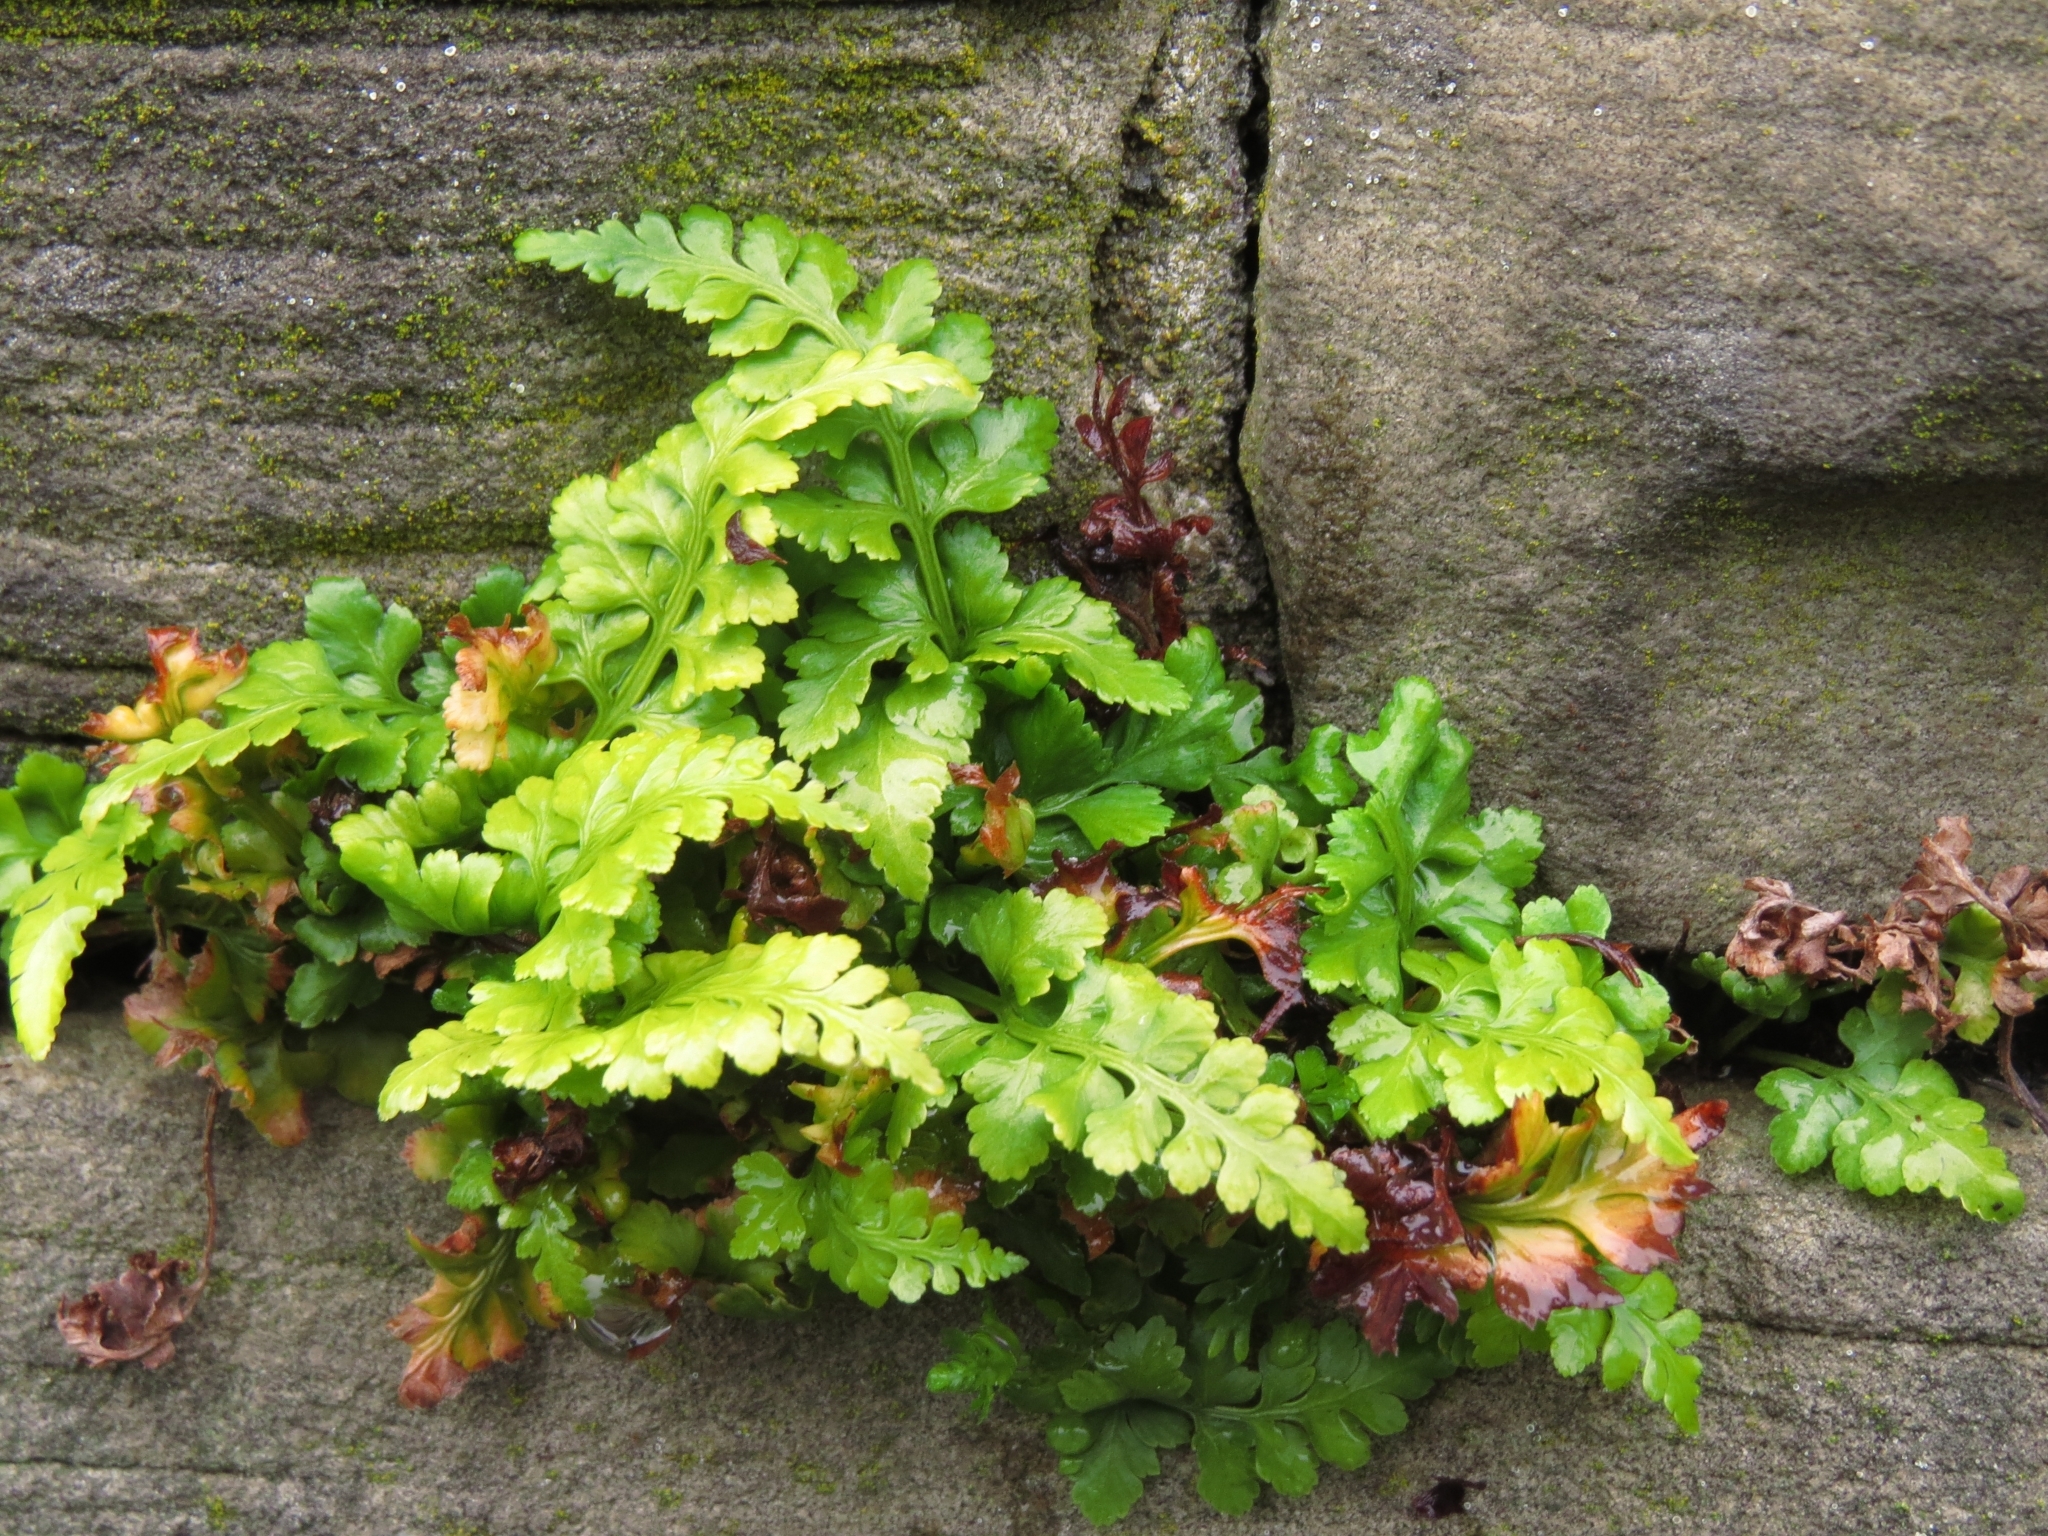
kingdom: Plantae
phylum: Tracheophyta
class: Polypodiopsida
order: Polypodiales
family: Aspleniaceae
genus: Asplenium
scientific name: Asplenium adiantum-nigrum
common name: Black spleenwort
